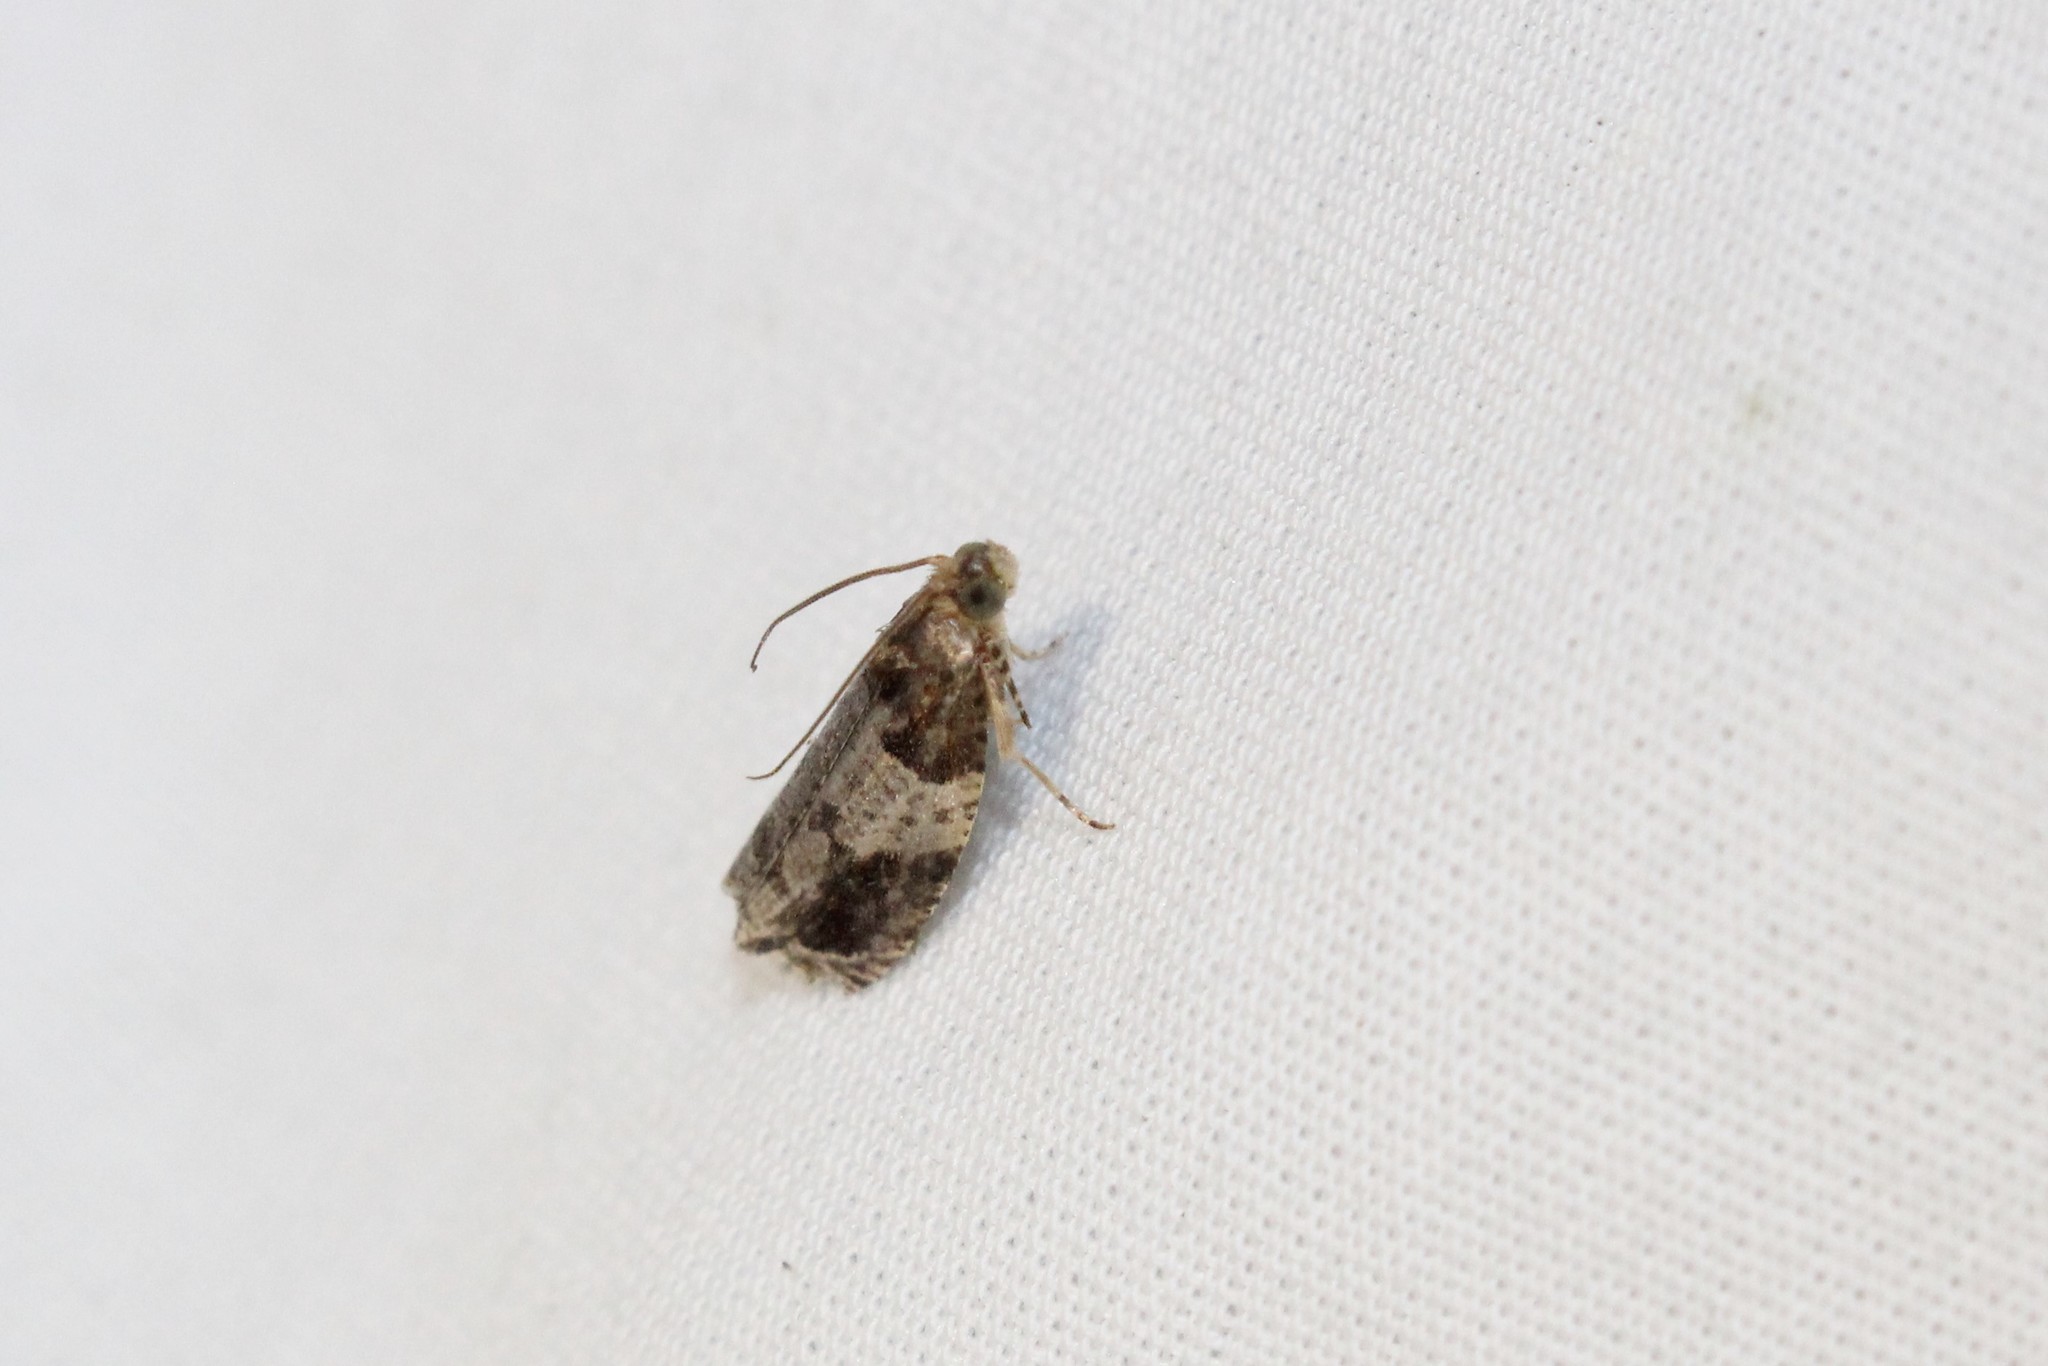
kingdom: Animalia
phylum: Arthropoda
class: Insecta
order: Lepidoptera
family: Tortricidae
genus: Olethreutes
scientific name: Olethreutes ferriferana
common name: Hydrangea leaftier moth
